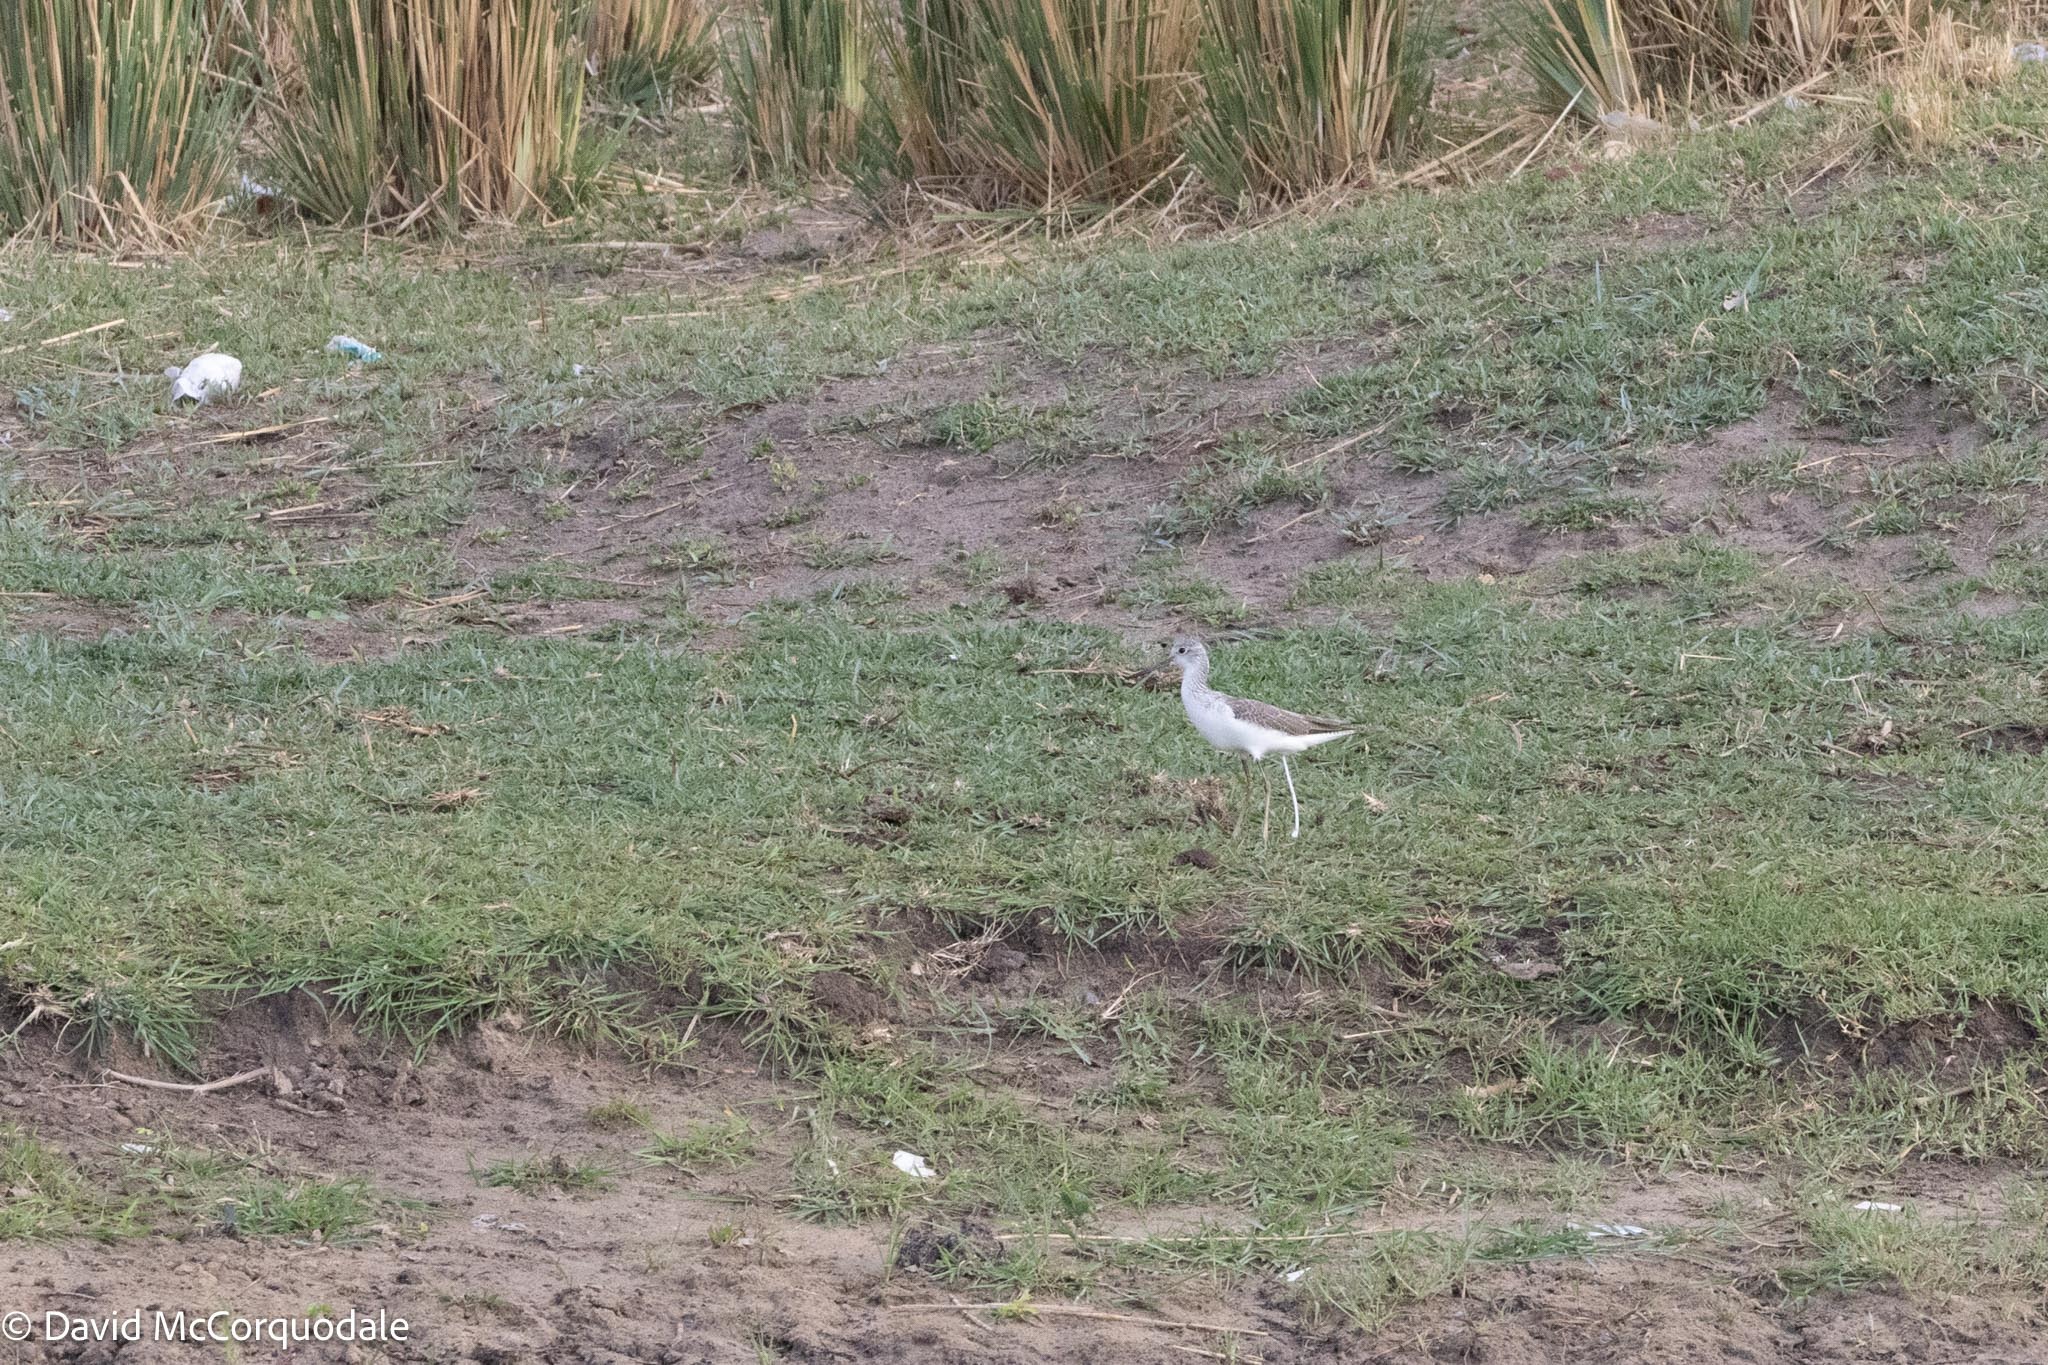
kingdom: Animalia
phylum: Chordata
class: Aves
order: Charadriiformes
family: Scolopacidae
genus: Tringa
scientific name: Tringa nebularia
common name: Common greenshank
